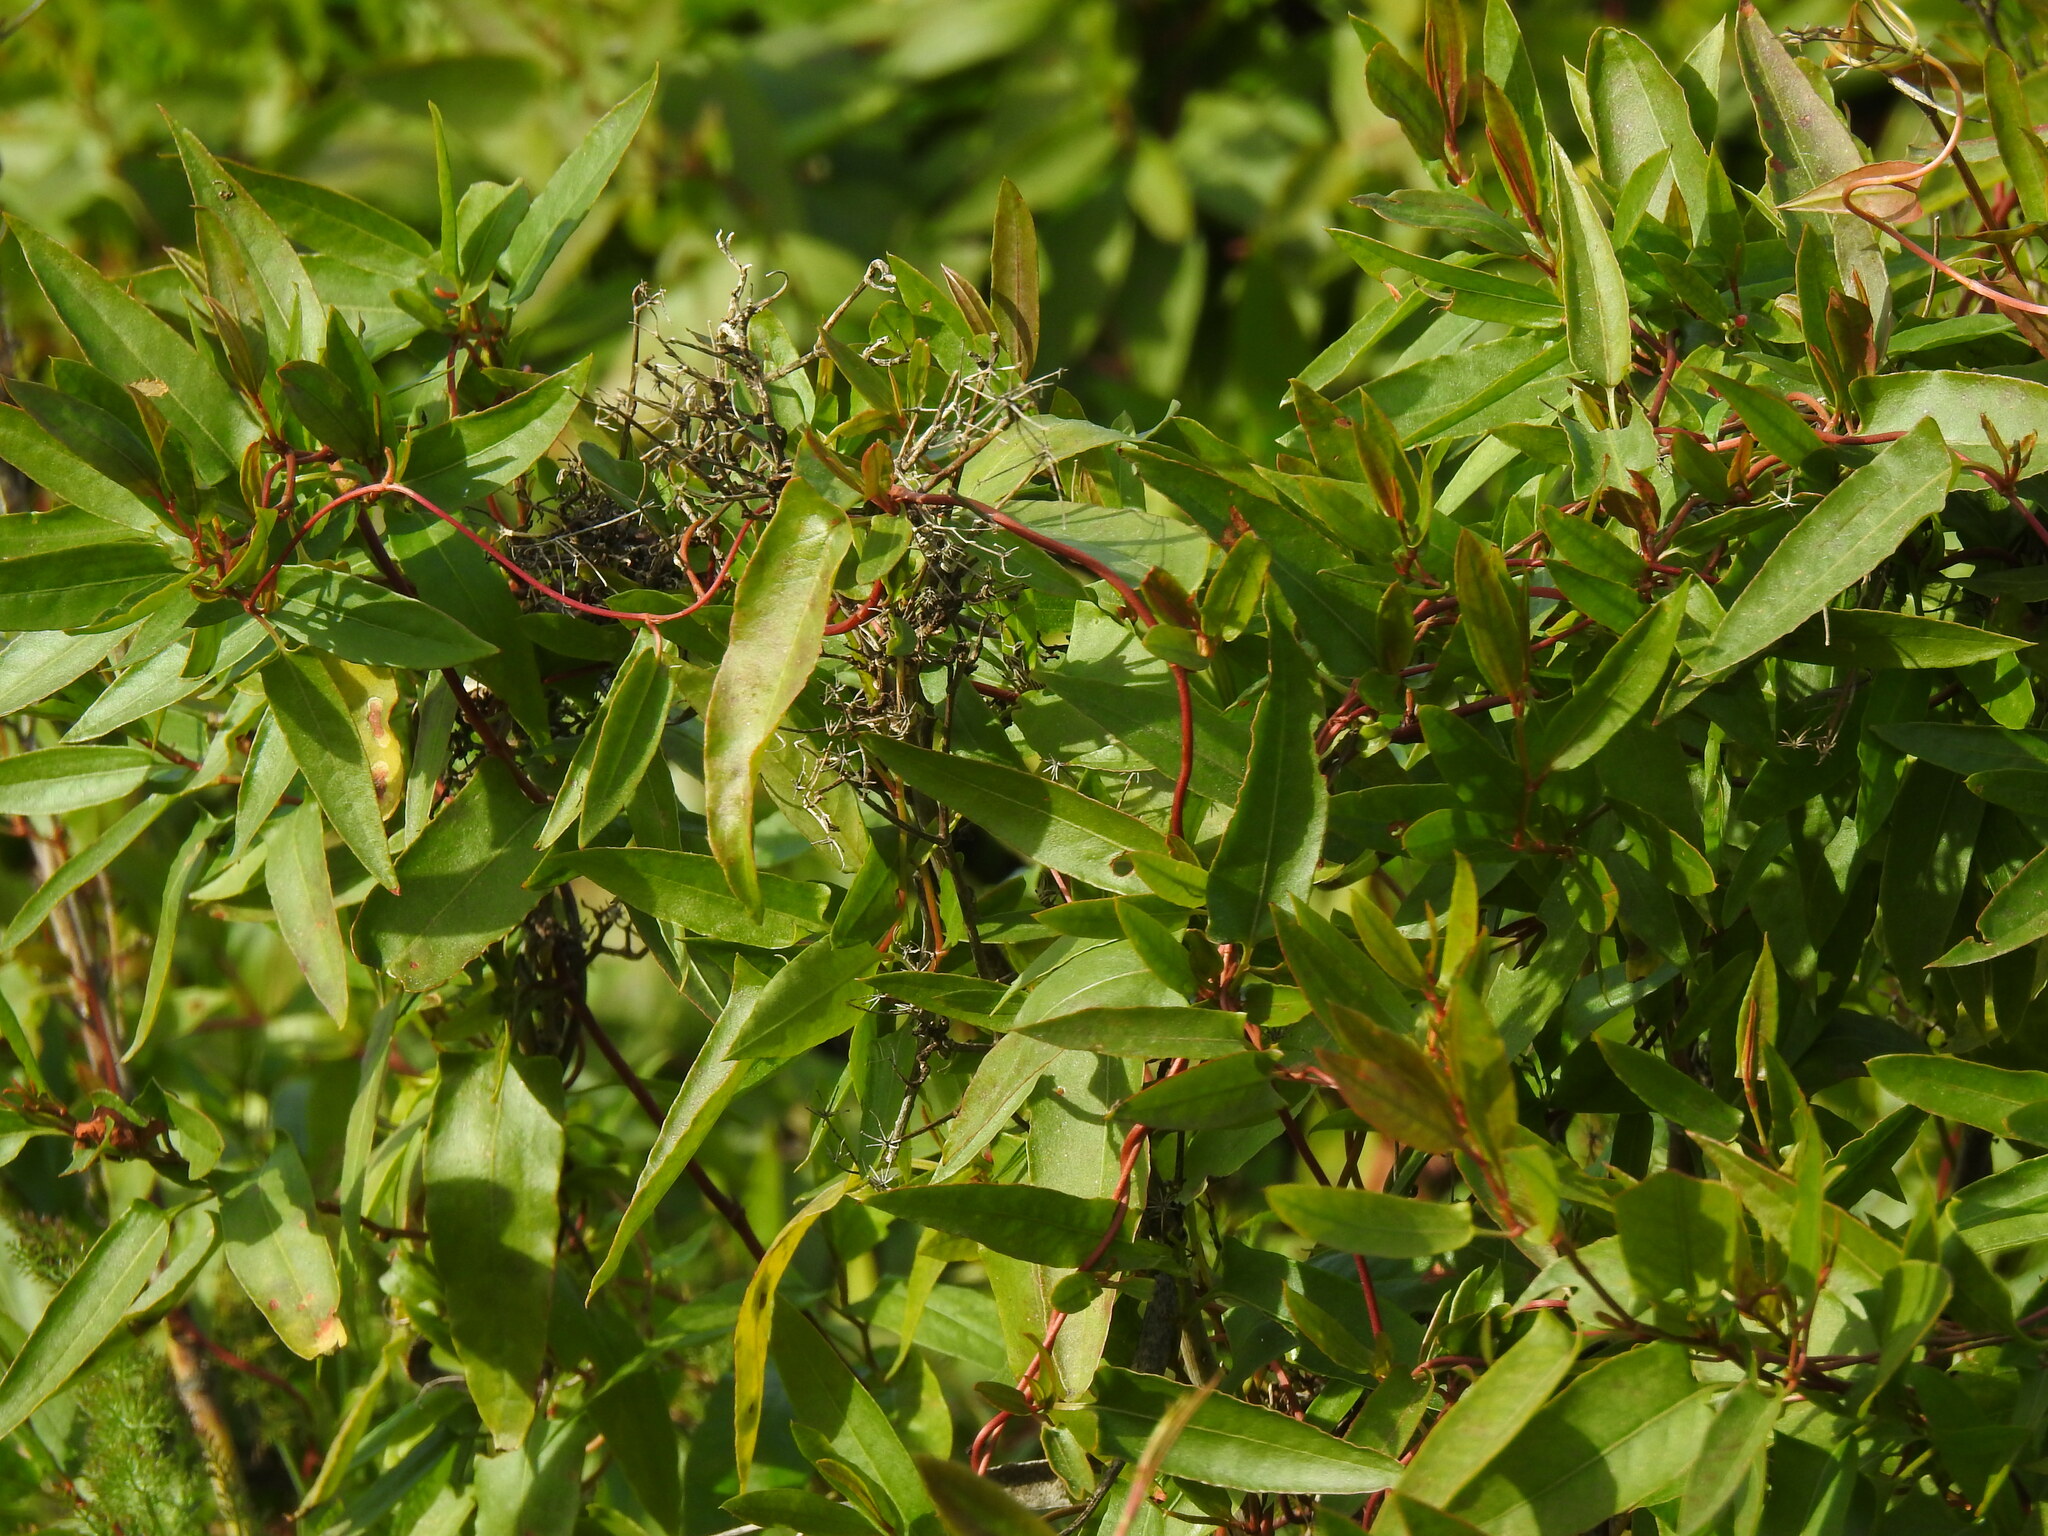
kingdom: Plantae
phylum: Tracheophyta
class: Magnoliopsida
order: Caryophyllales
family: Polygonaceae
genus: Muehlenbeckia
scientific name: Muehlenbeckia sagittifolia
